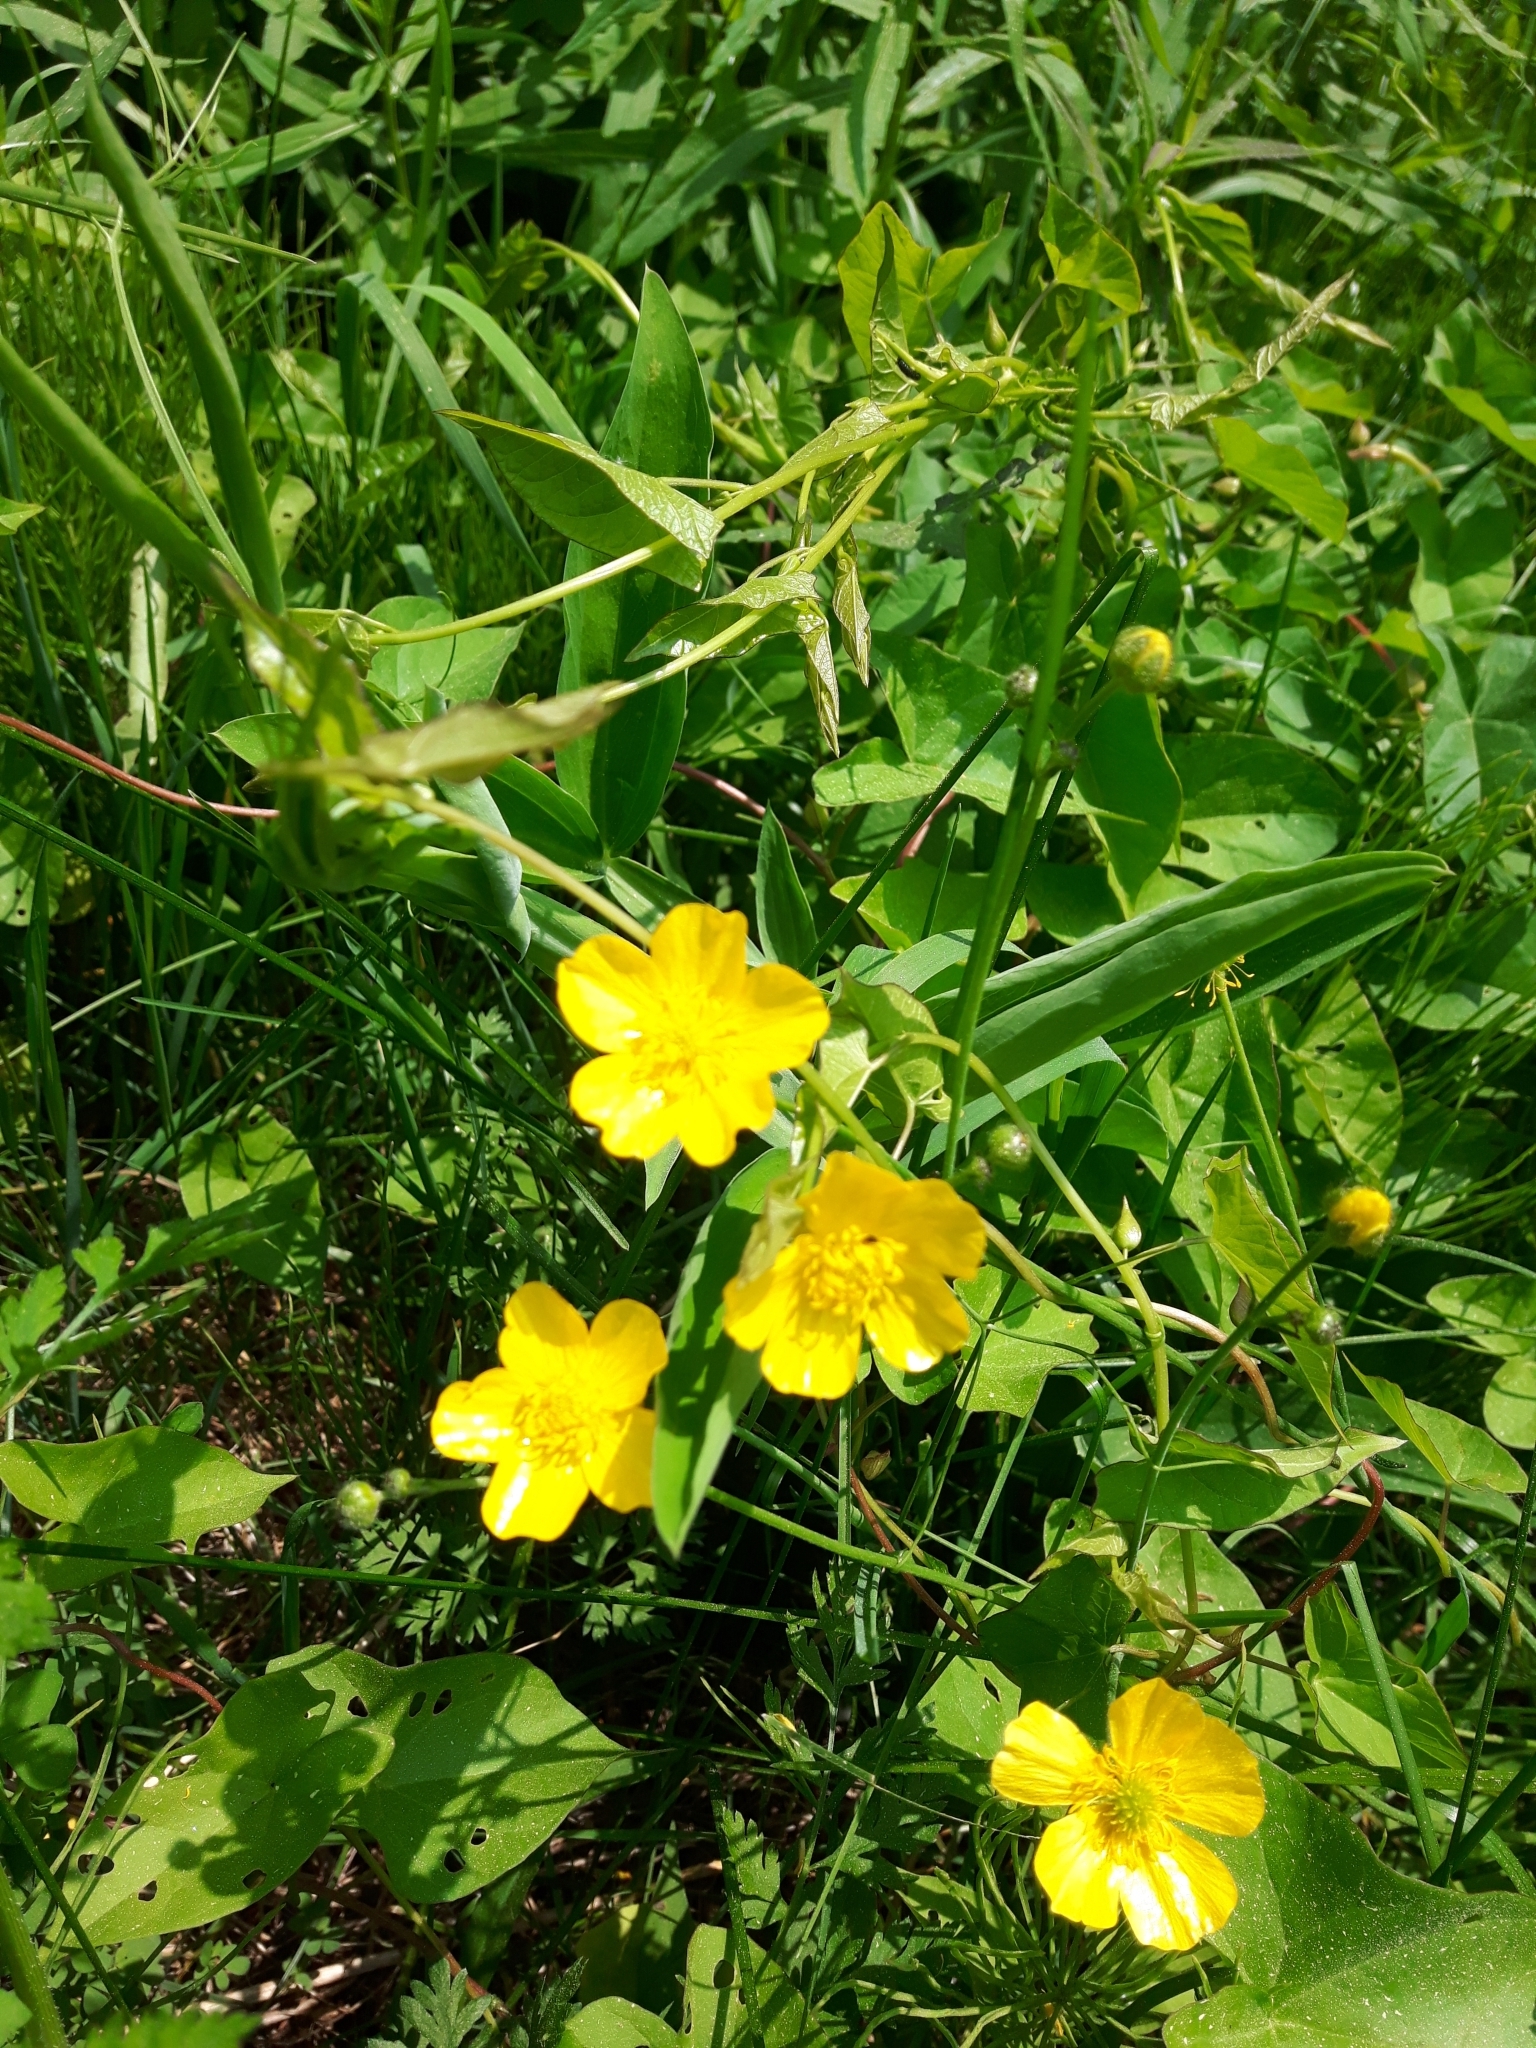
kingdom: Plantae
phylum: Tracheophyta
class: Magnoliopsida
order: Ranunculales
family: Ranunculaceae
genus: Ranunculus
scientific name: Ranunculus acris
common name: Meadow buttercup
